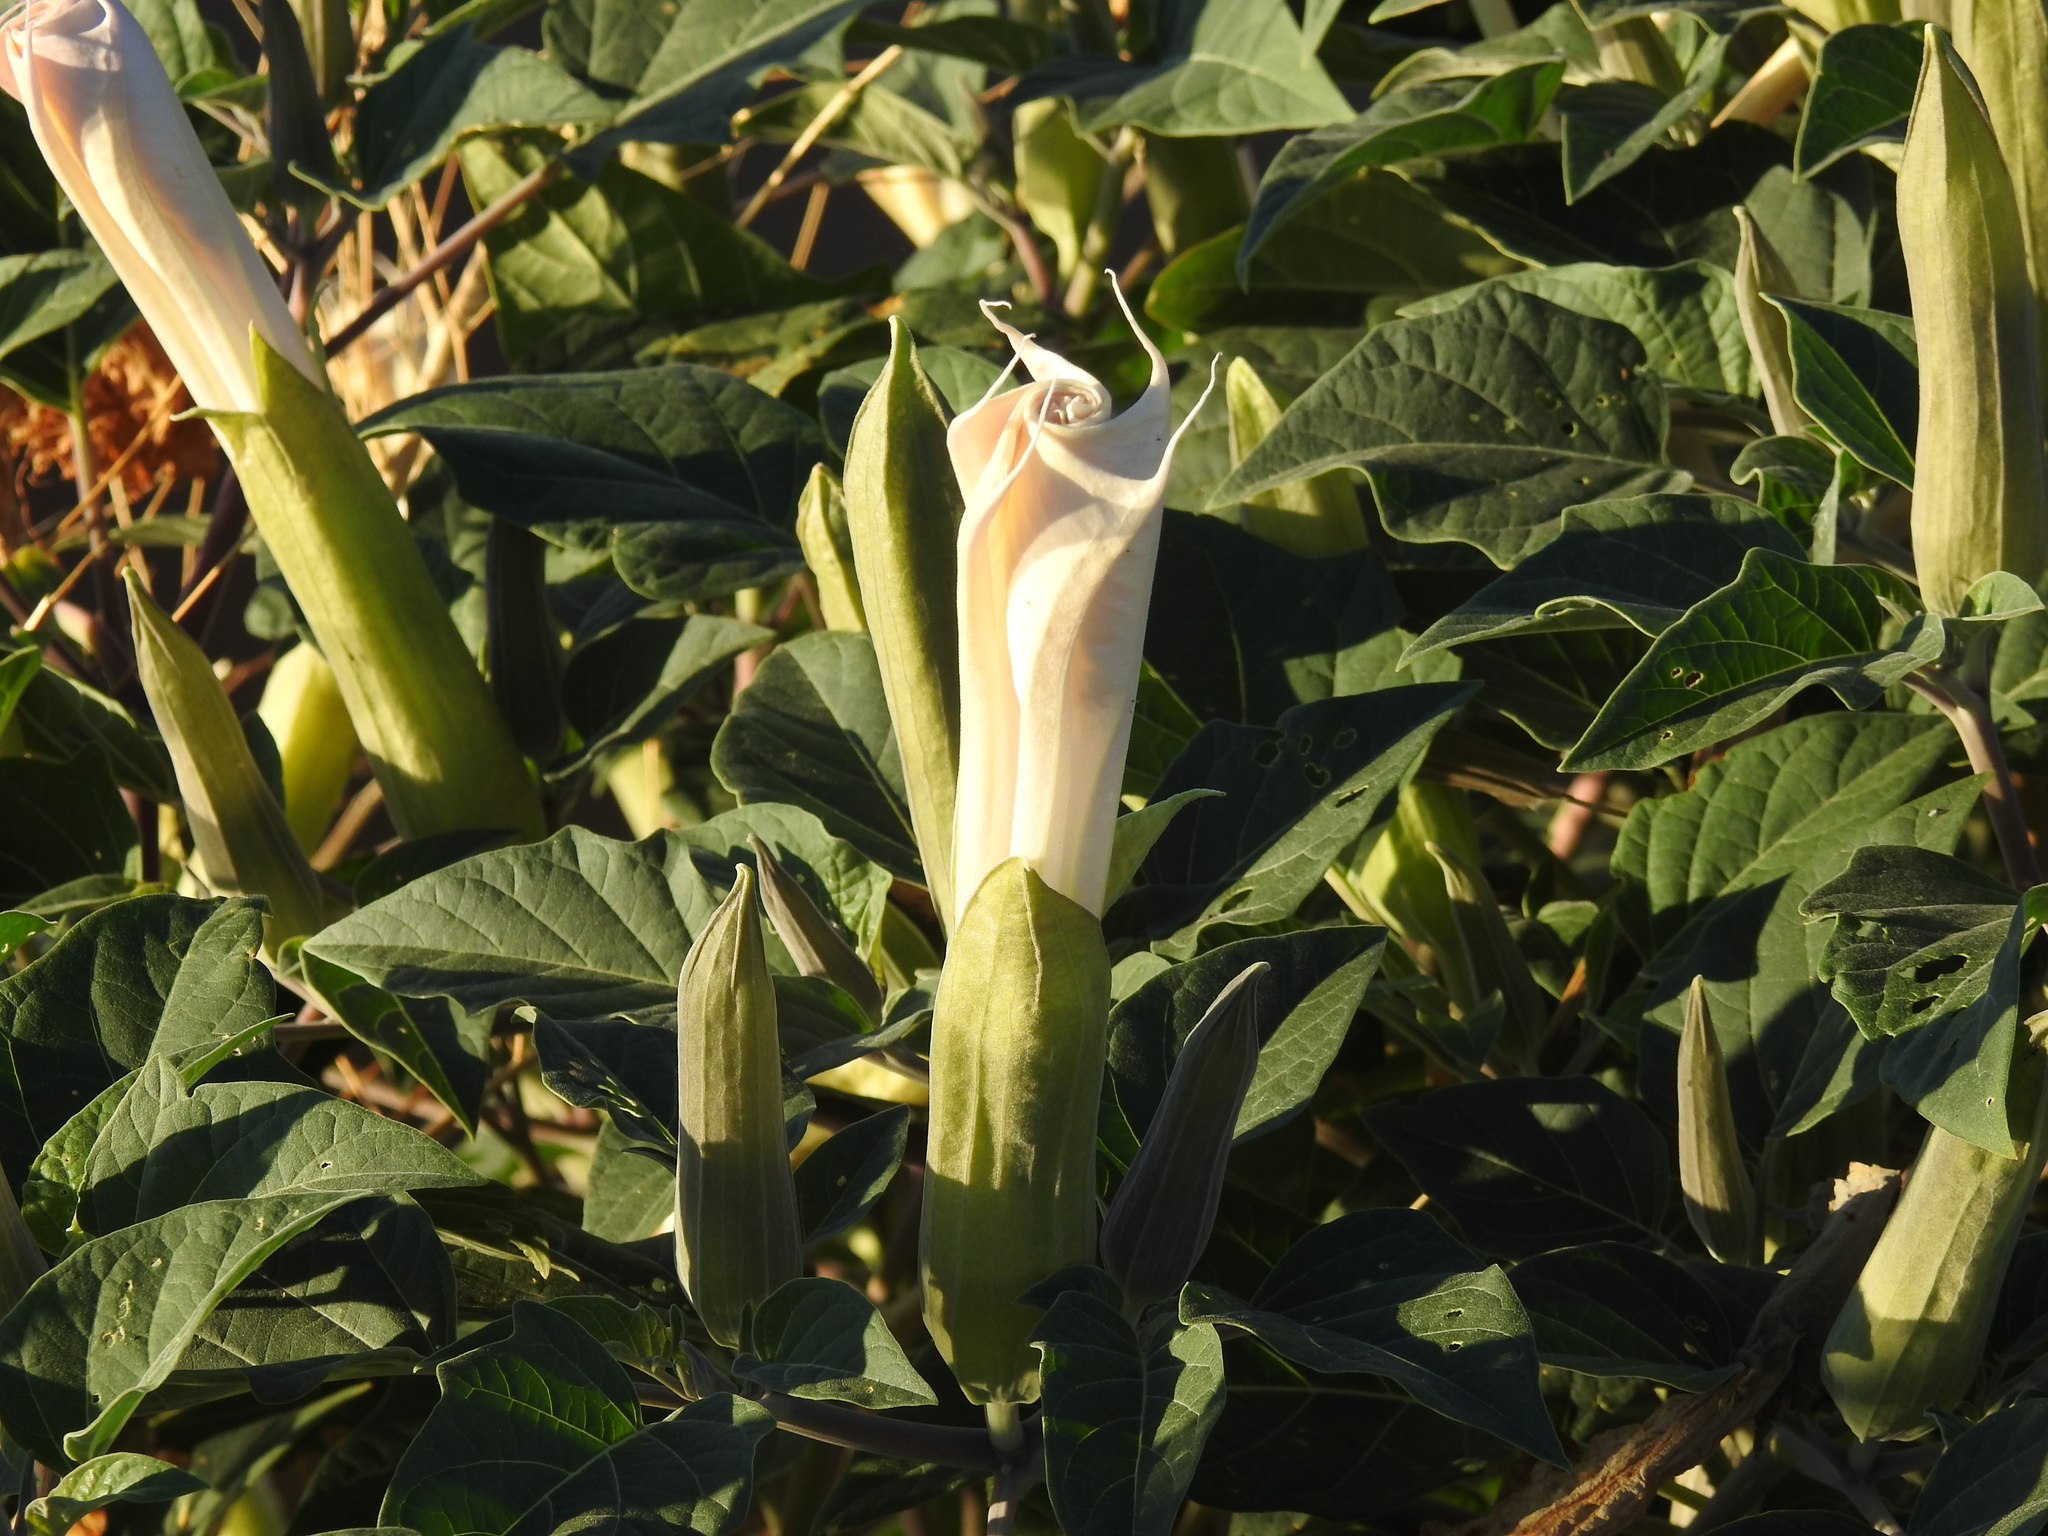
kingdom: Plantae
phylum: Tracheophyta
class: Magnoliopsida
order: Solanales
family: Solanaceae
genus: Datura
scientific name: Datura wrightii
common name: Sacred thorn-apple
